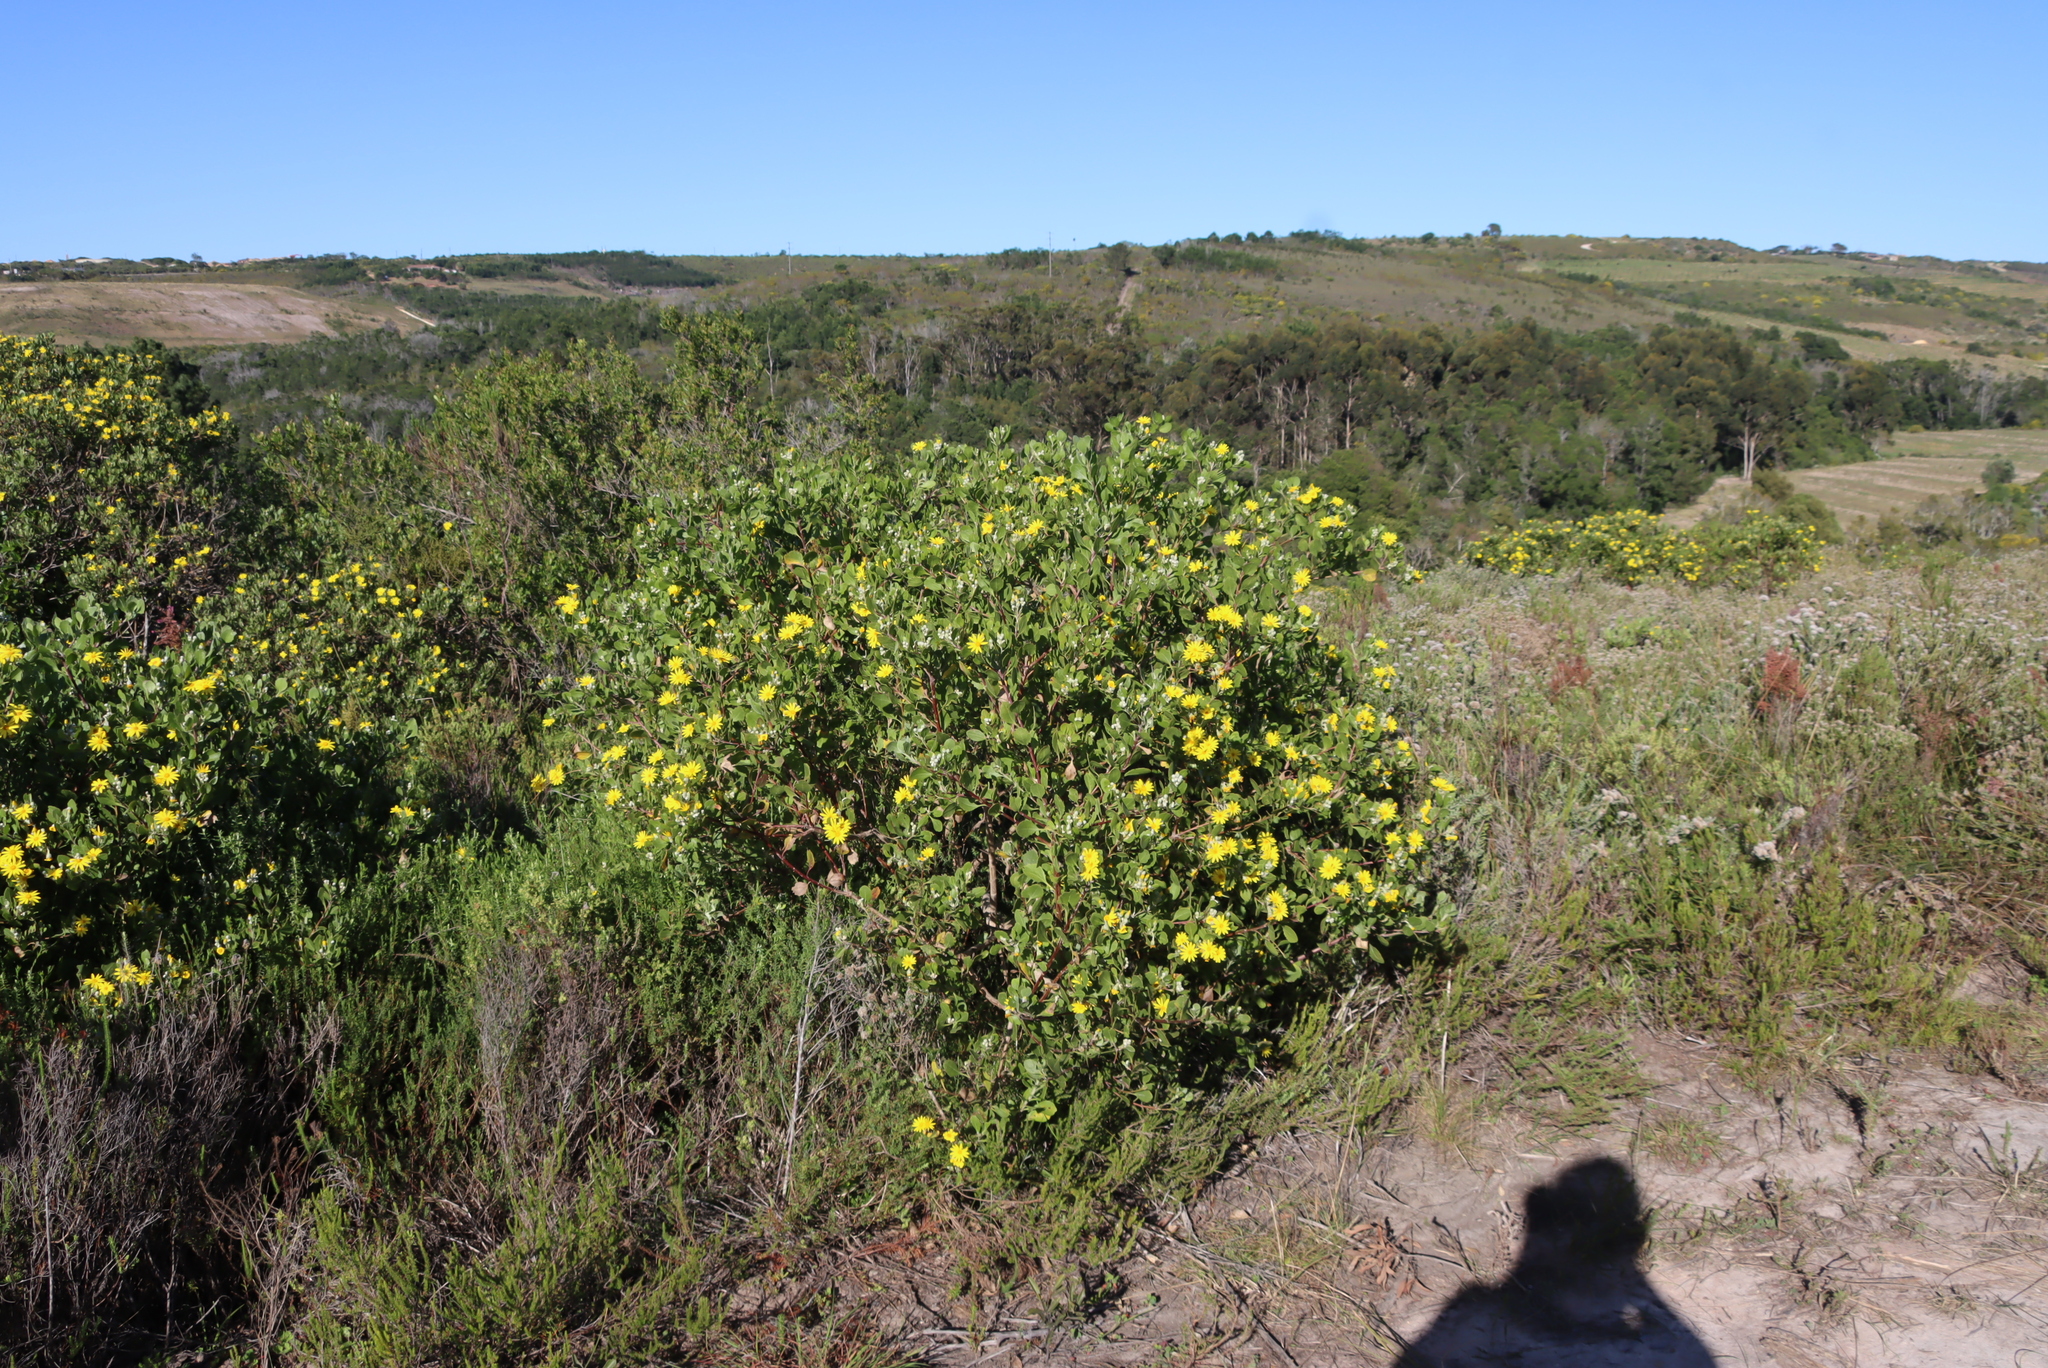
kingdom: Plantae
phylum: Tracheophyta
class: Magnoliopsida
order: Asterales
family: Asteraceae
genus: Osteospermum
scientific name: Osteospermum moniliferum
